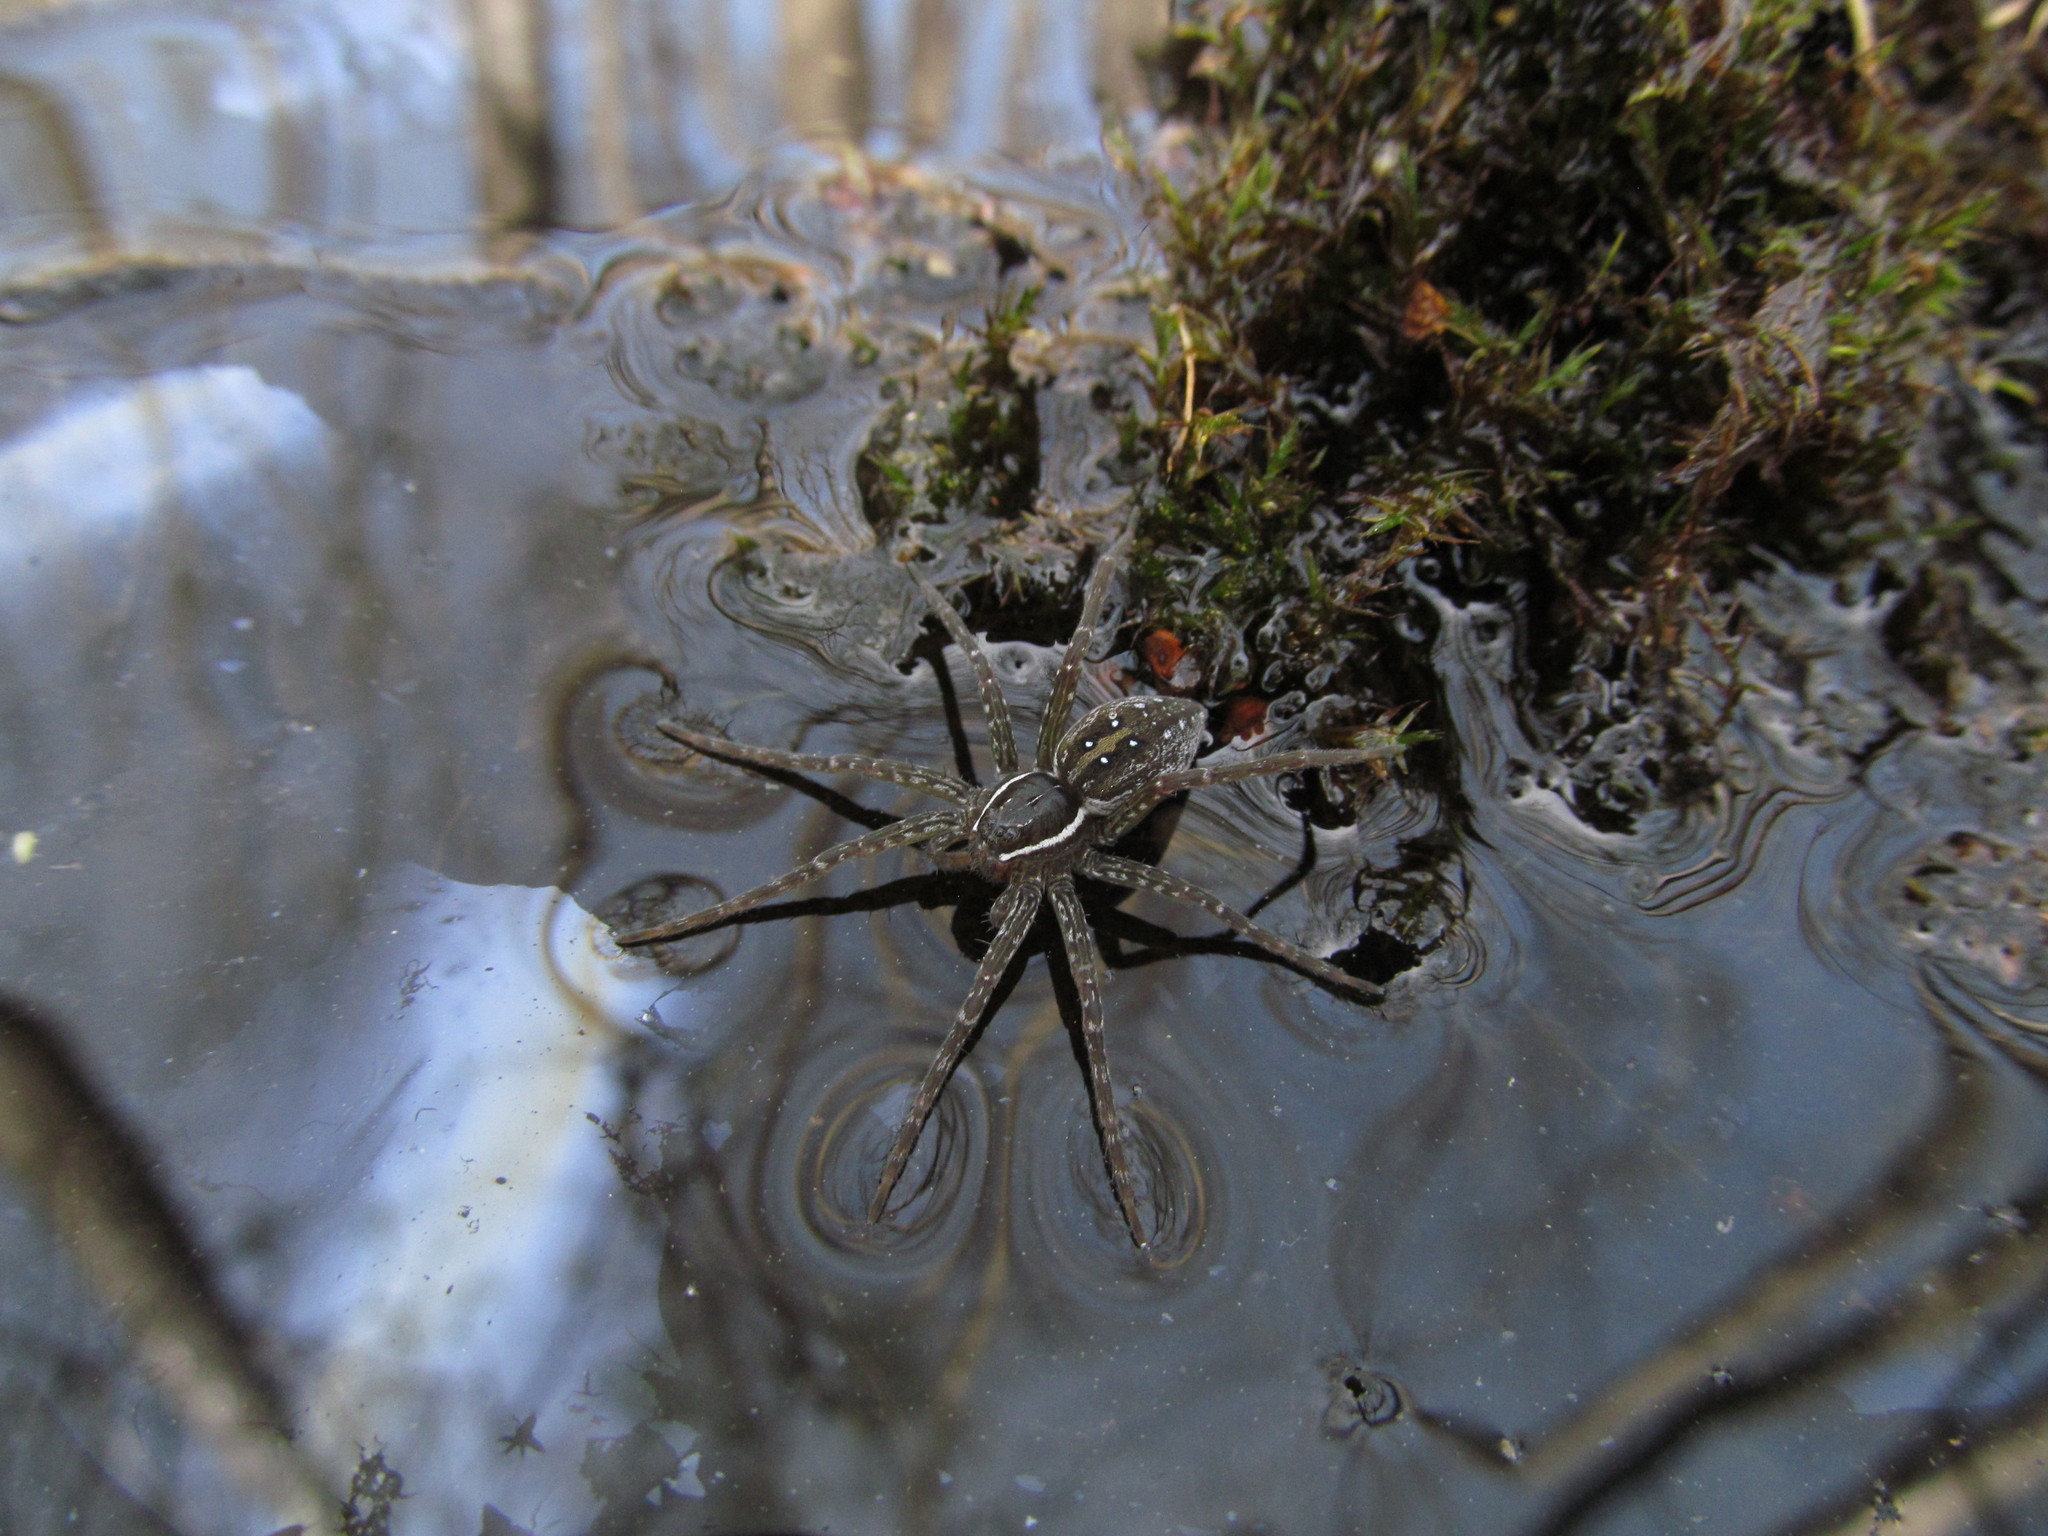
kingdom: Animalia
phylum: Arthropoda
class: Arachnida
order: Araneae
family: Pisauridae
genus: Dolomedes
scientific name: Dolomedes triton
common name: Six-spotted fishing spider
